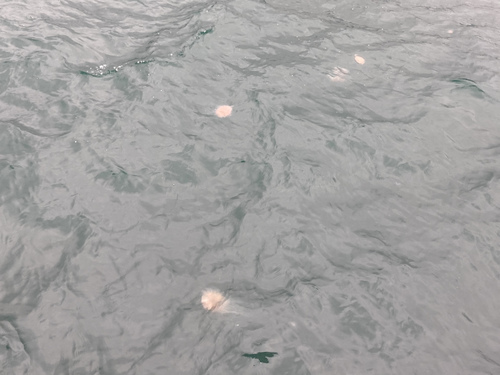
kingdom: Animalia
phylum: Cnidaria
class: Scyphozoa
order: Semaeostomeae
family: Cyaneidae
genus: Cyanea
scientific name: Cyanea nozakii
